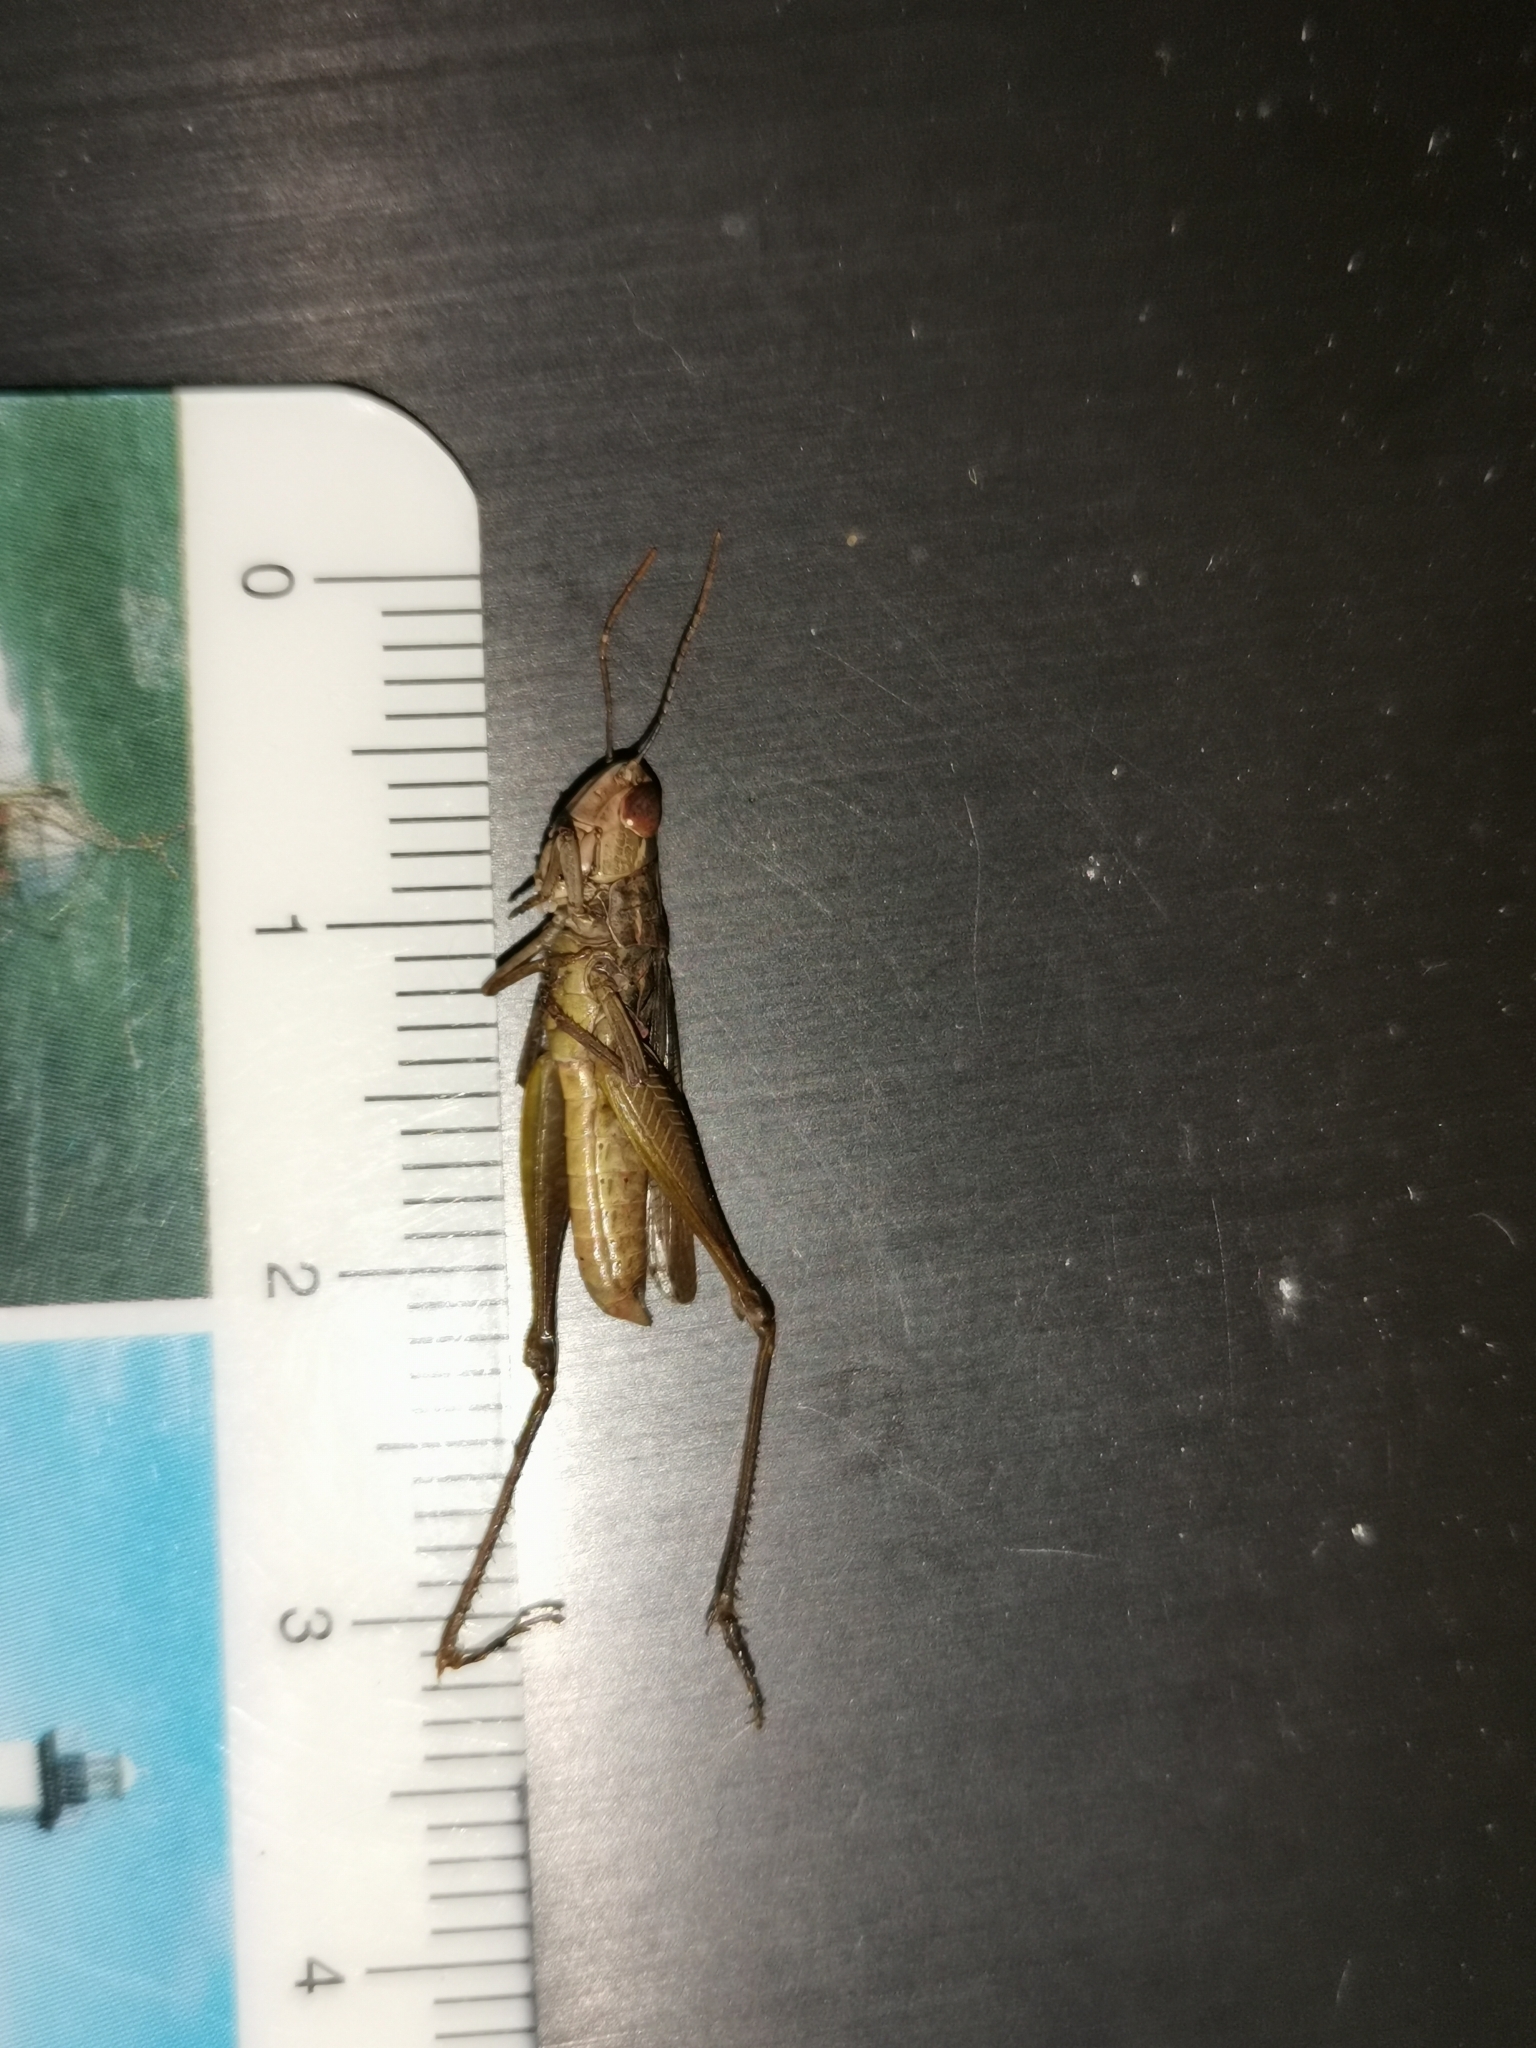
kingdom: Animalia
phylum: Arthropoda
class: Insecta
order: Orthoptera
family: Acrididae
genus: Euchorthippus
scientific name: Euchorthippus elegantulus
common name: Elegant straw grasshopper
